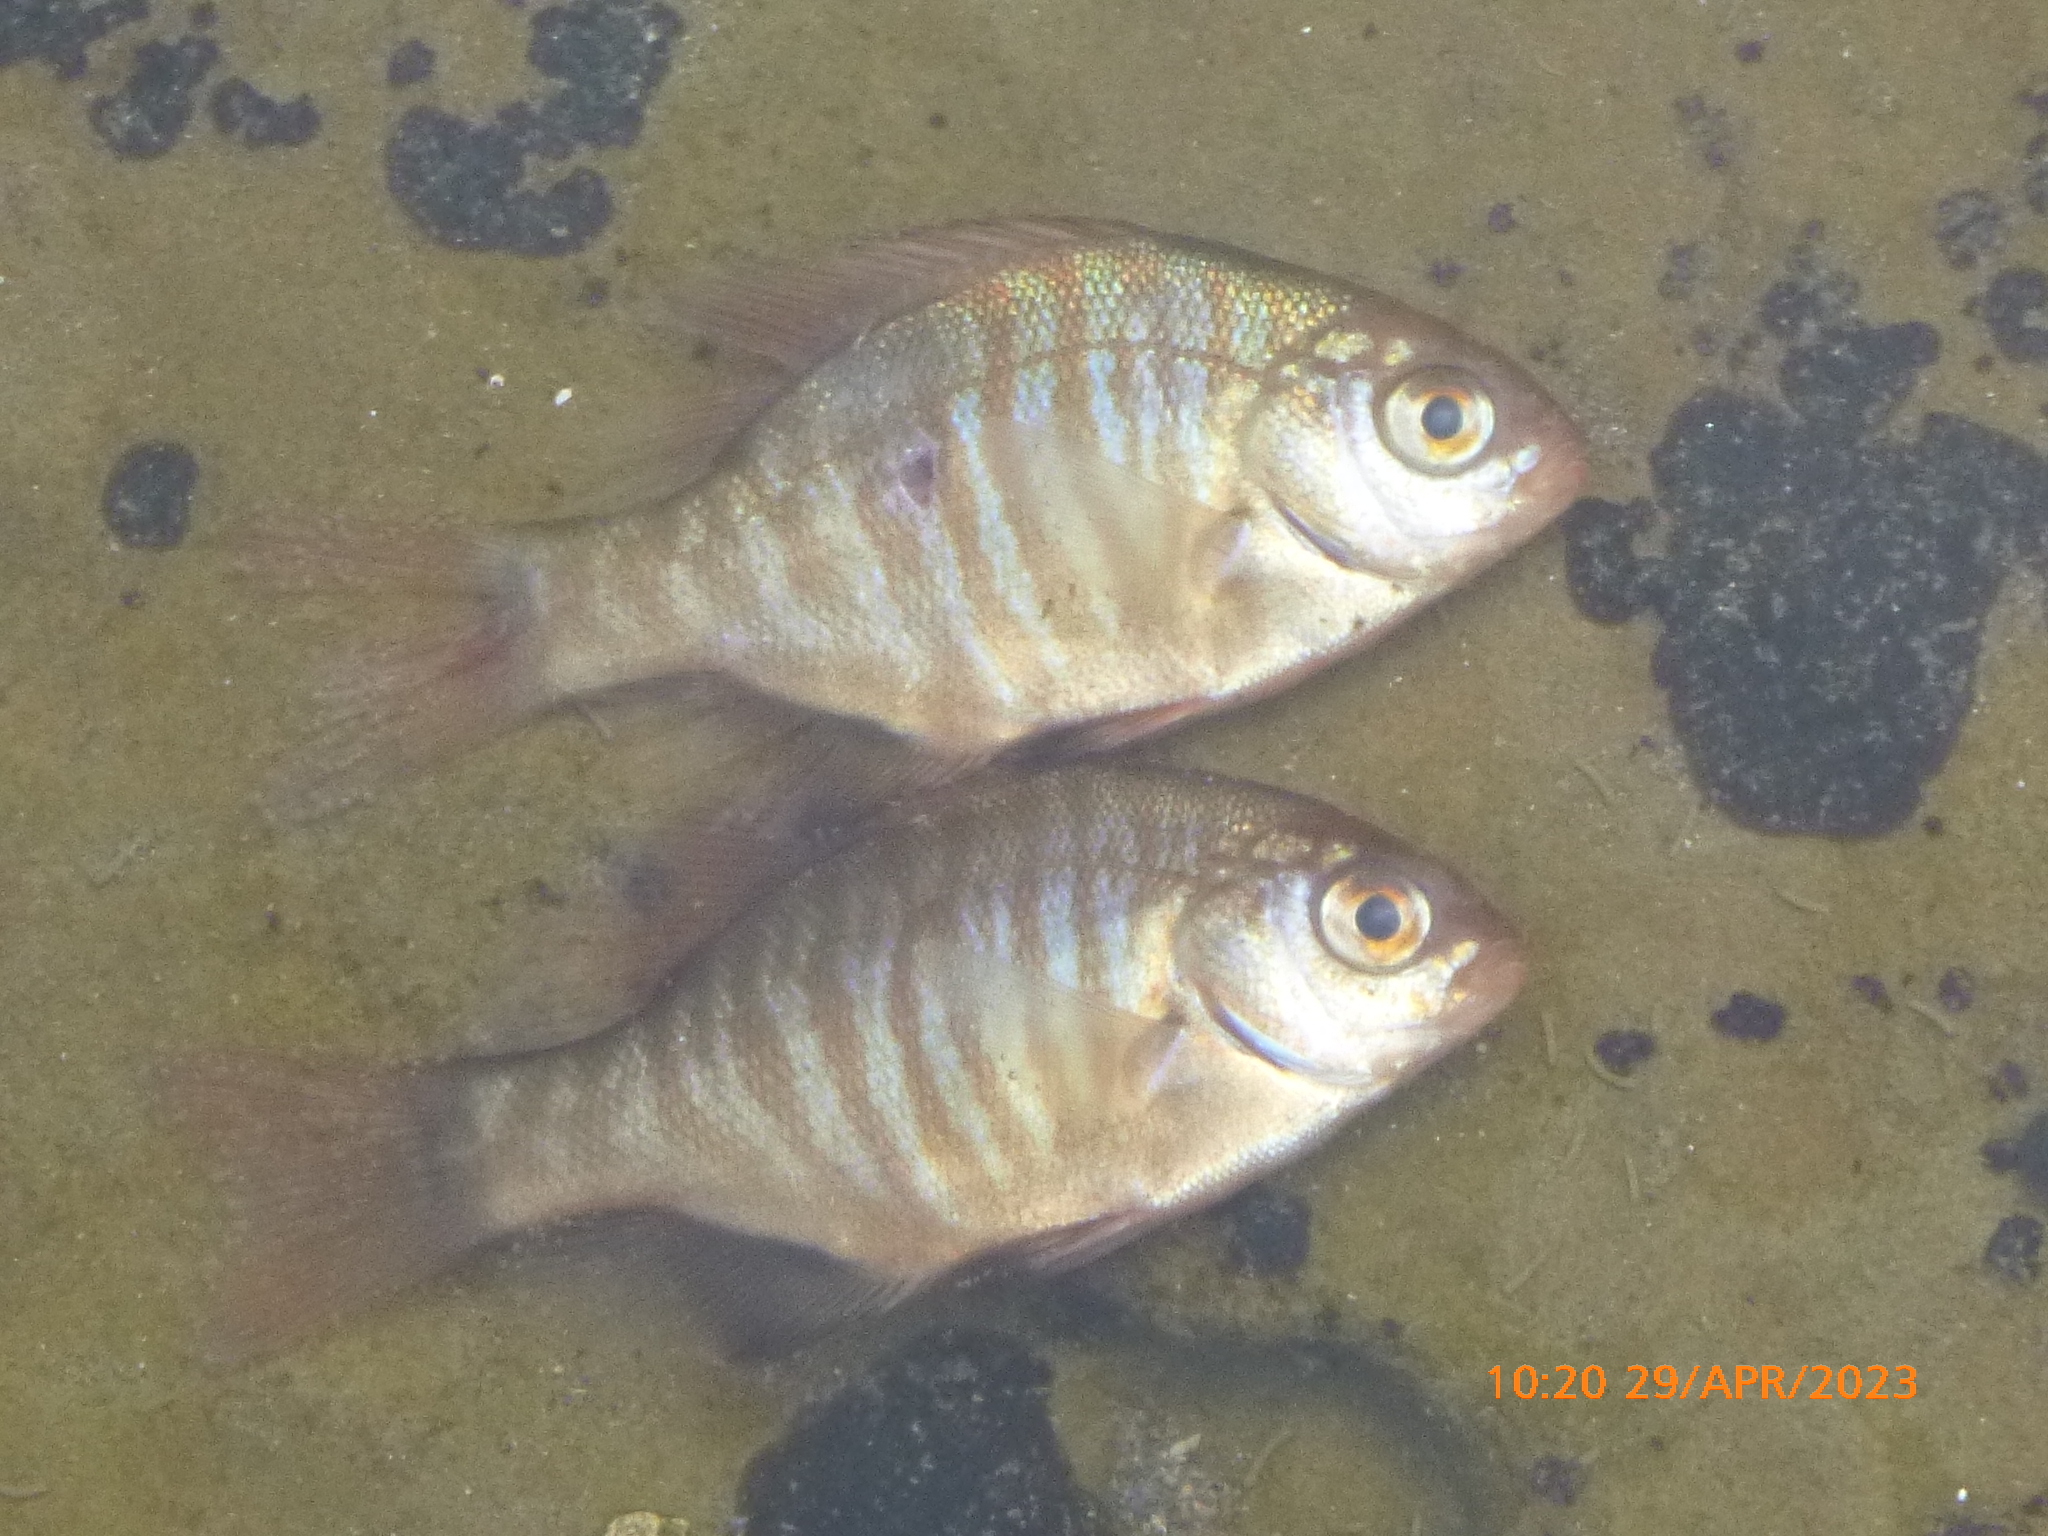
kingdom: Animalia
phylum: Chordata
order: Perciformes
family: Embiotocidae
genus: Embiotoca
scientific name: Embiotoca jacksoni
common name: Black perch
